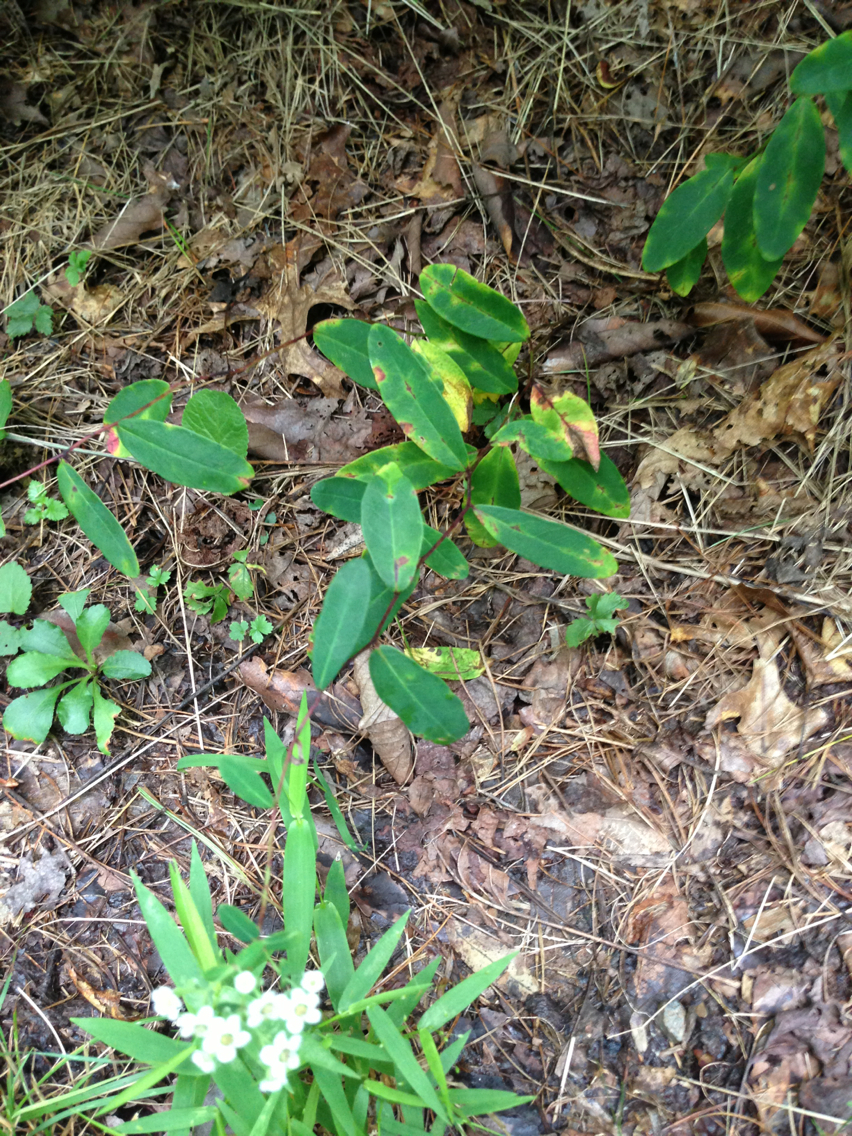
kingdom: Plantae
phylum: Tracheophyta
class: Magnoliopsida
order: Malpighiales
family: Euphorbiaceae
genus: Euphorbia
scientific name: Euphorbia corollata
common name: Flowering spurge
